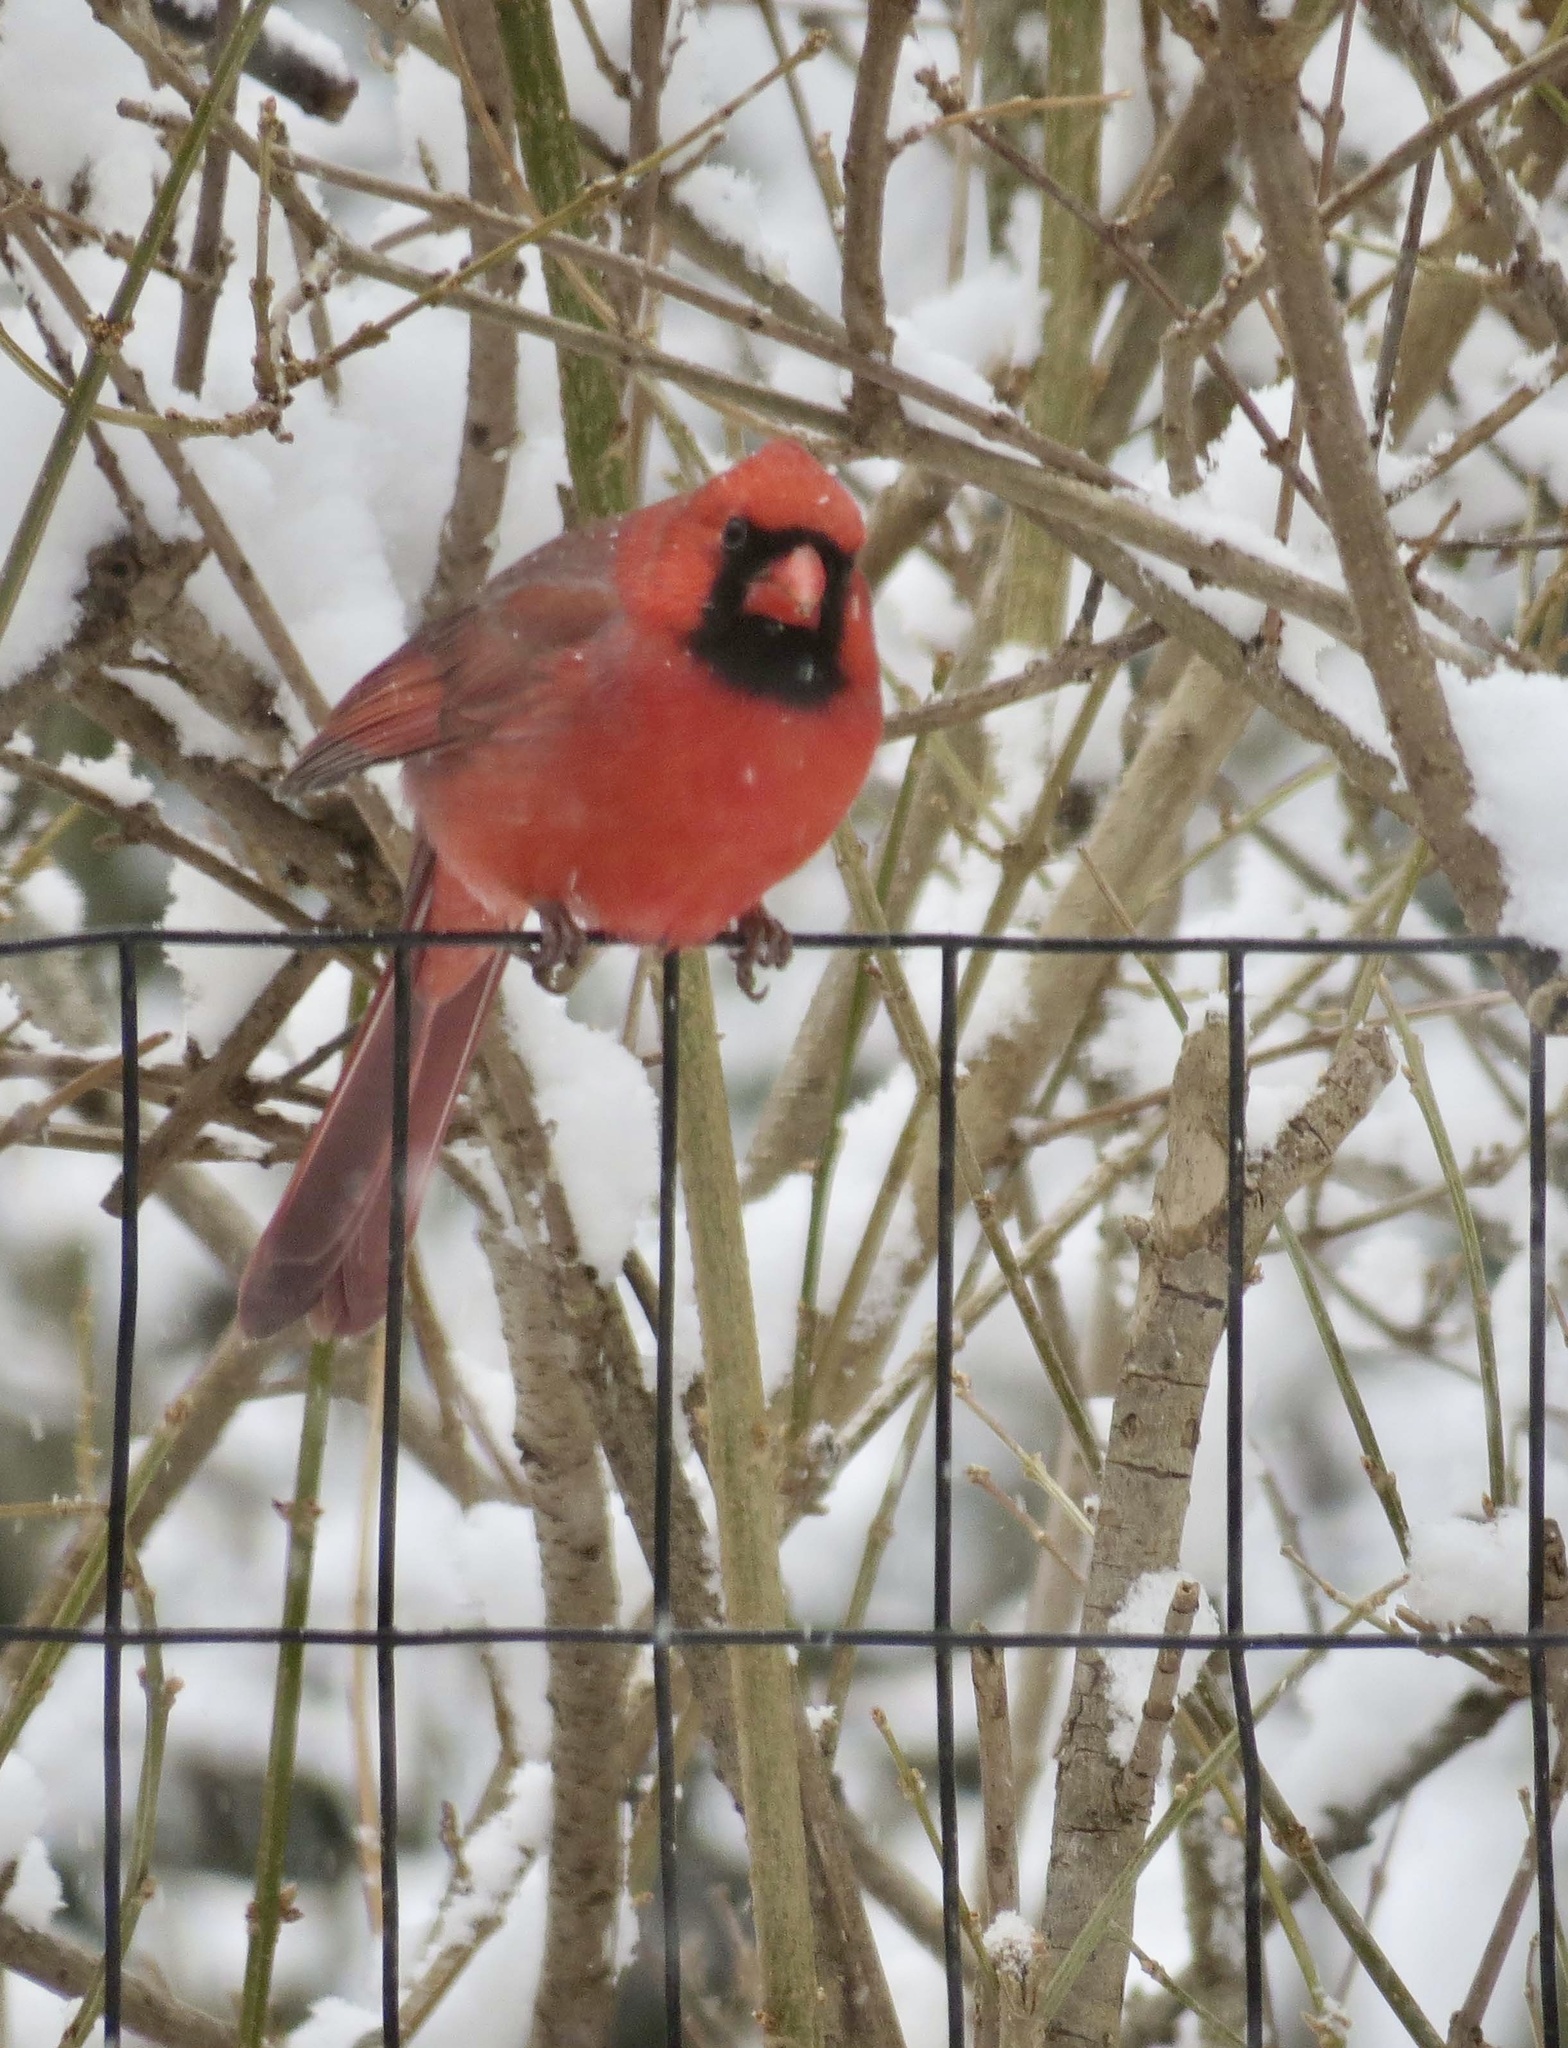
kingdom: Animalia
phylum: Chordata
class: Aves
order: Passeriformes
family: Cardinalidae
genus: Cardinalis
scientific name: Cardinalis cardinalis
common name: Northern cardinal
